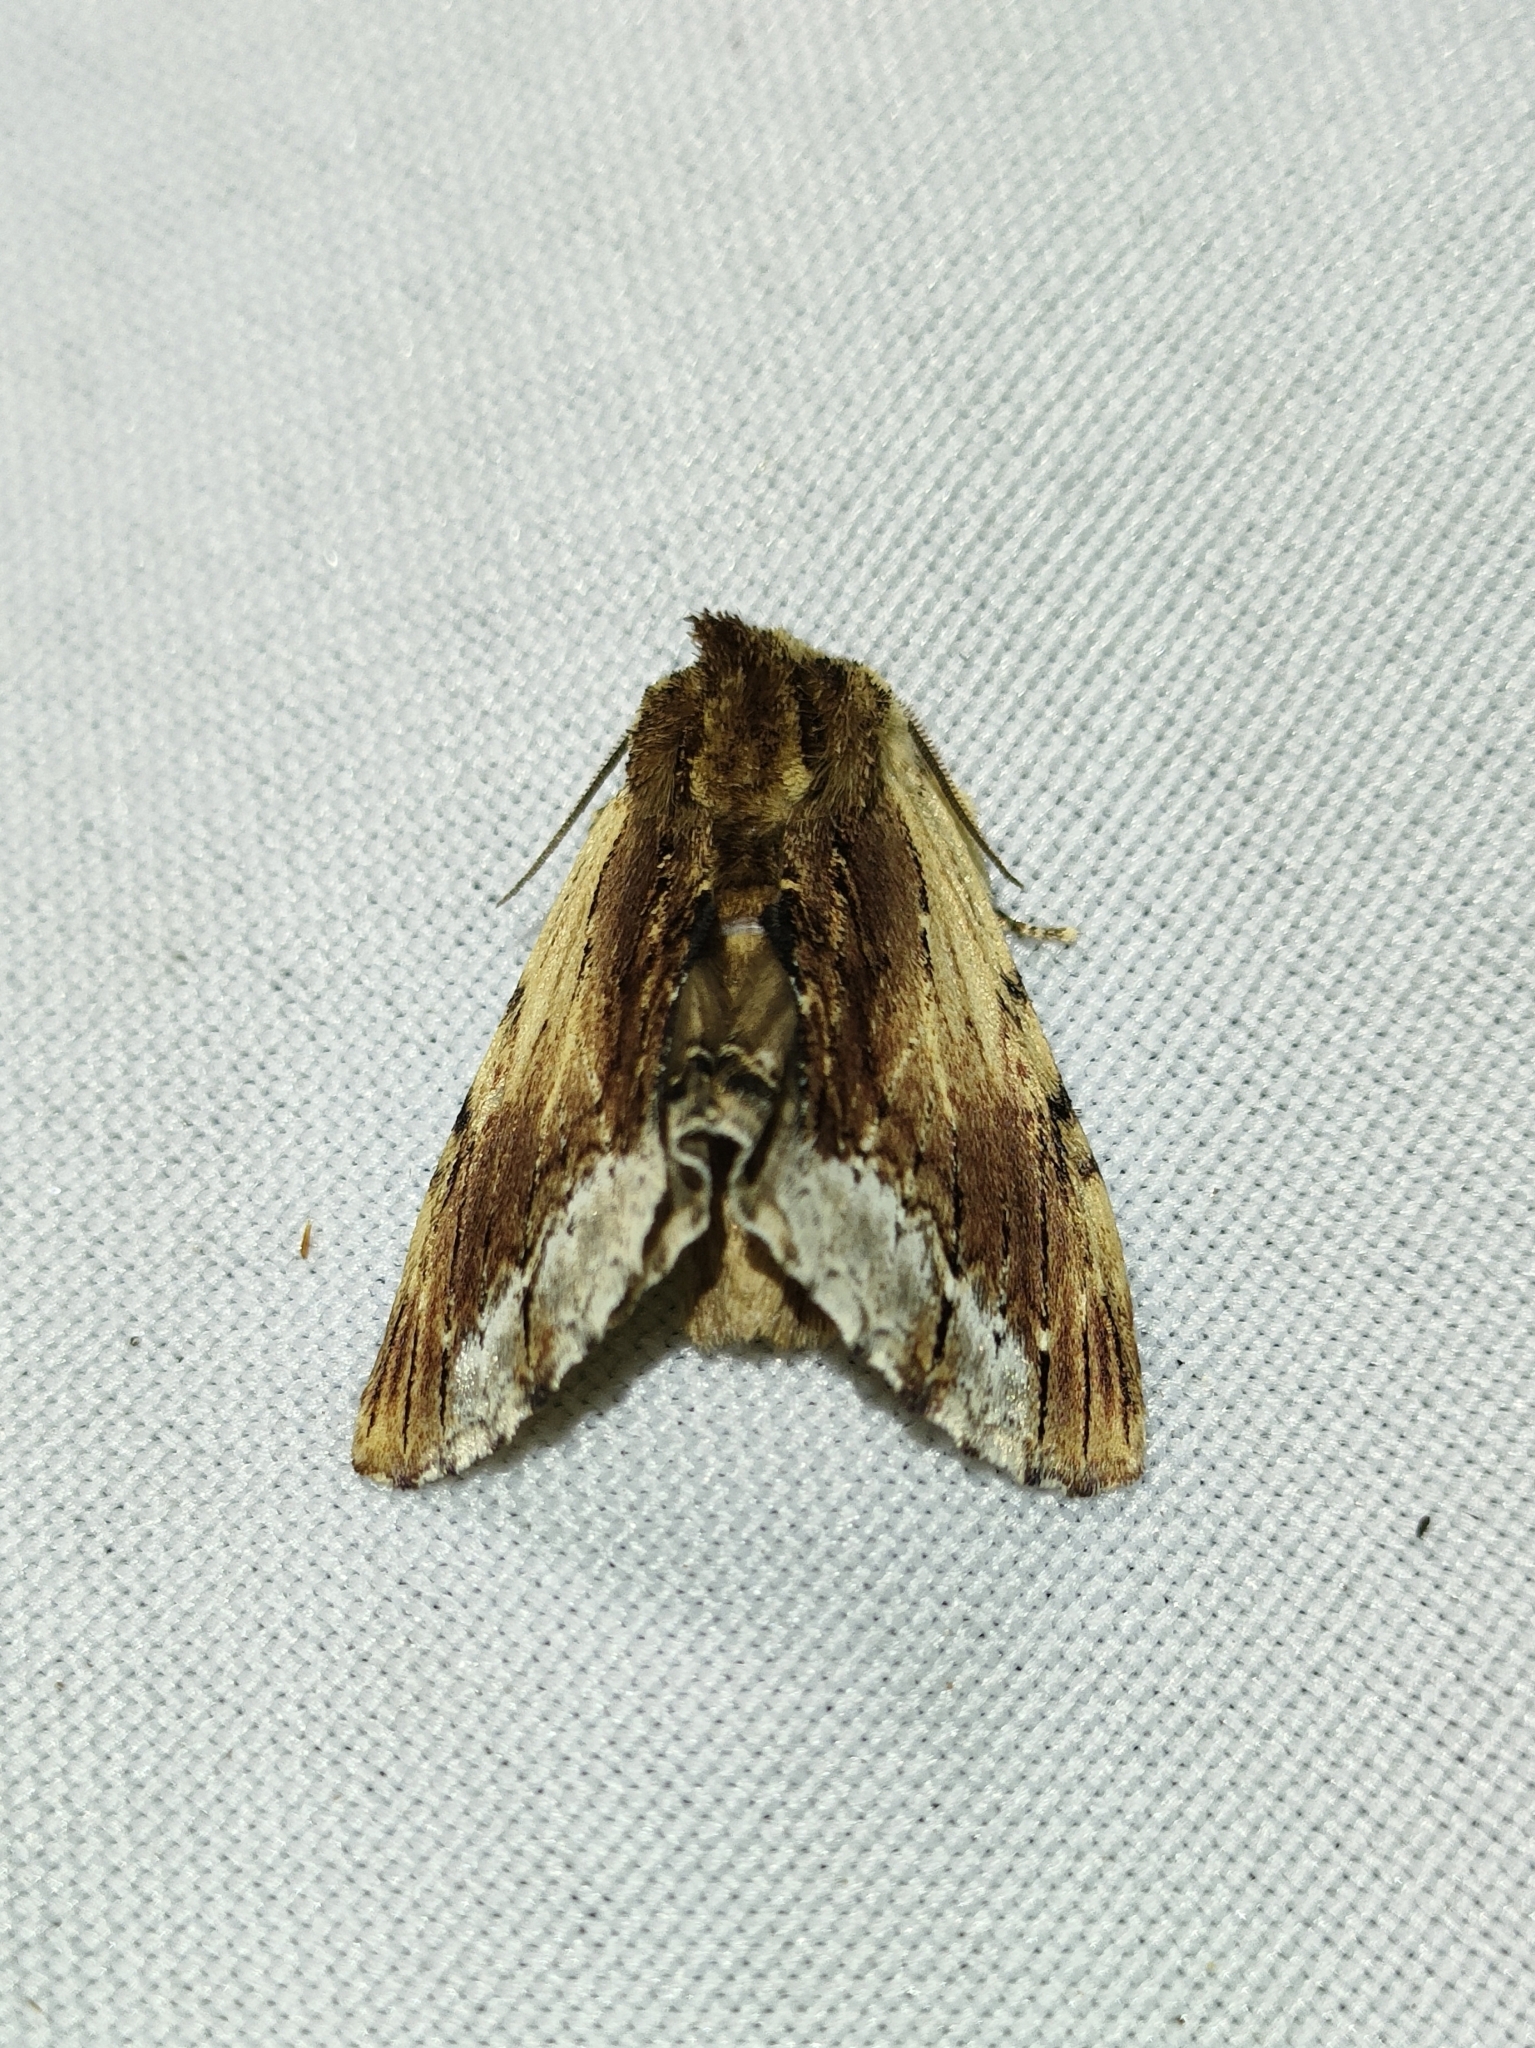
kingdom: Animalia
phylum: Arthropoda
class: Insecta
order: Lepidoptera
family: Notodontidae
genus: Ptilodon
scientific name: Ptilodon cucullina
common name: Maple prominent
